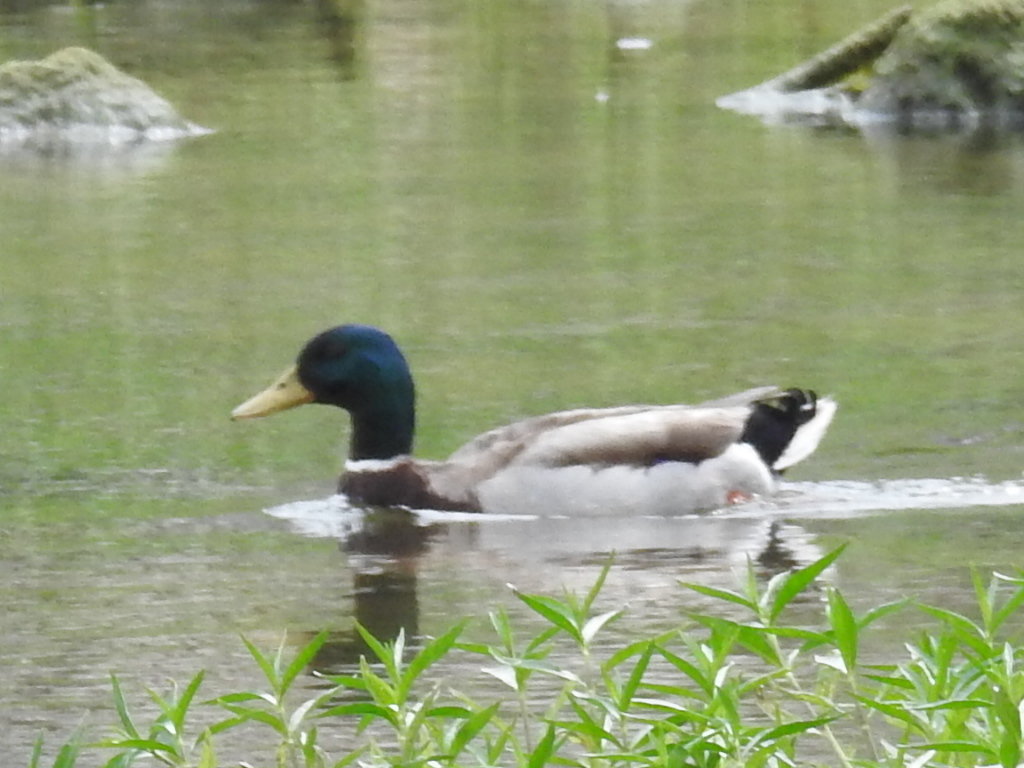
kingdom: Animalia
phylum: Chordata
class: Aves
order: Anseriformes
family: Anatidae
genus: Anas
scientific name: Anas platyrhynchos
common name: Mallard
